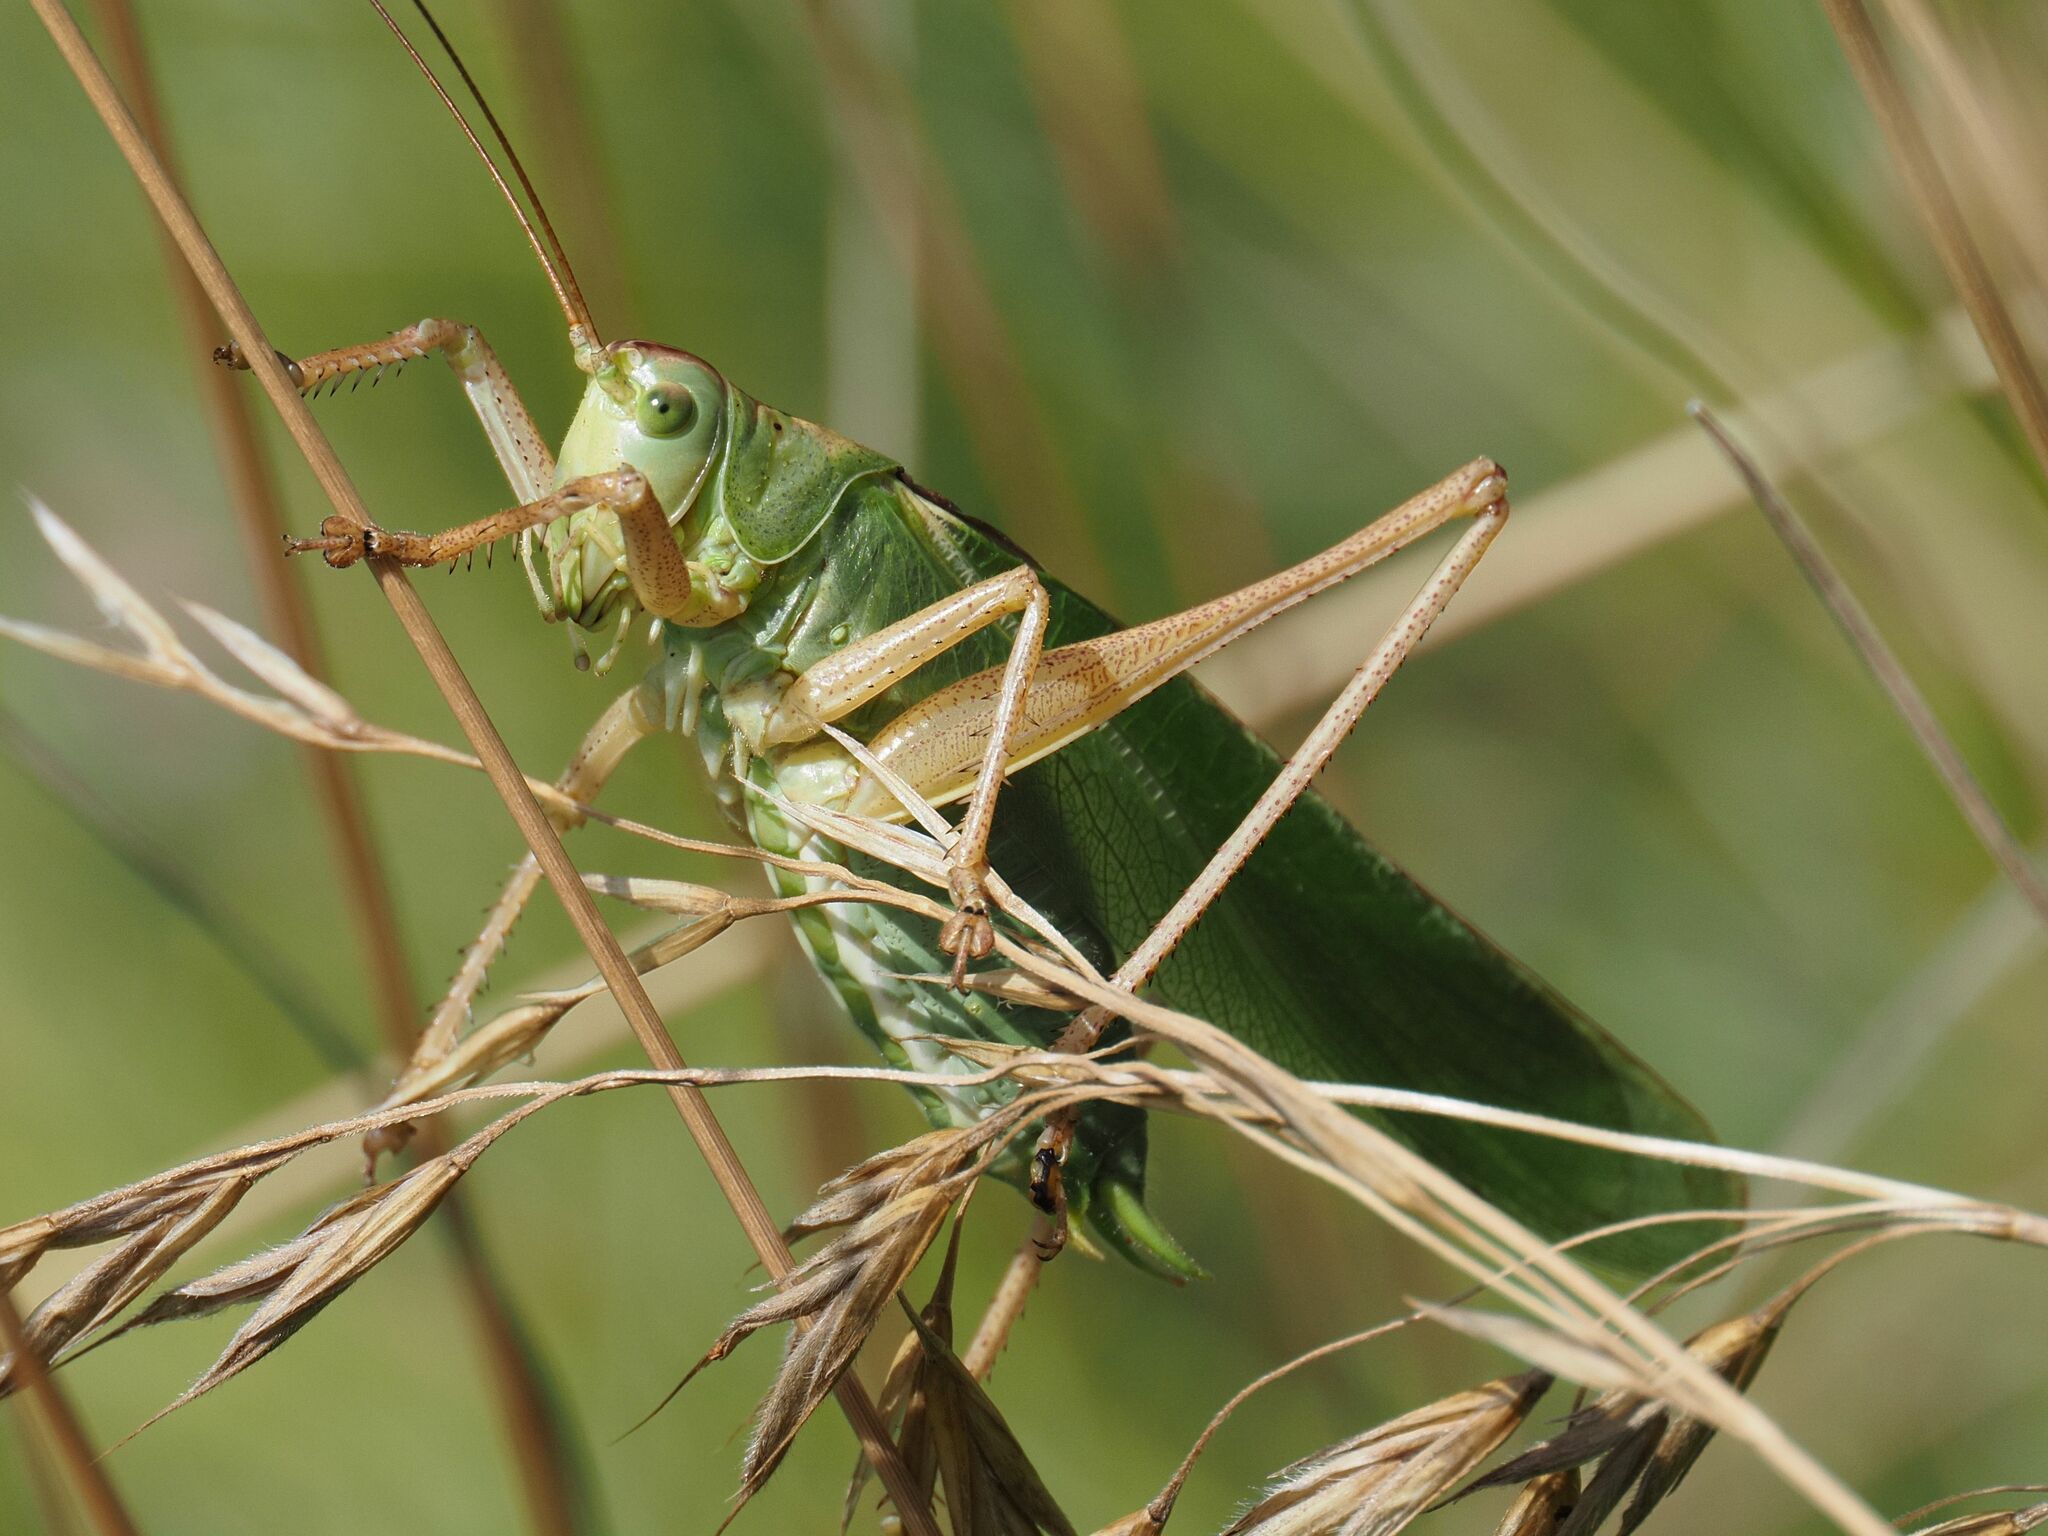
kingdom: Animalia
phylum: Arthropoda
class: Insecta
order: Orthoptera
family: Tettigoniidae
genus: Tettigonia
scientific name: Tettigonia viridissima
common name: Great green bush-cricket
